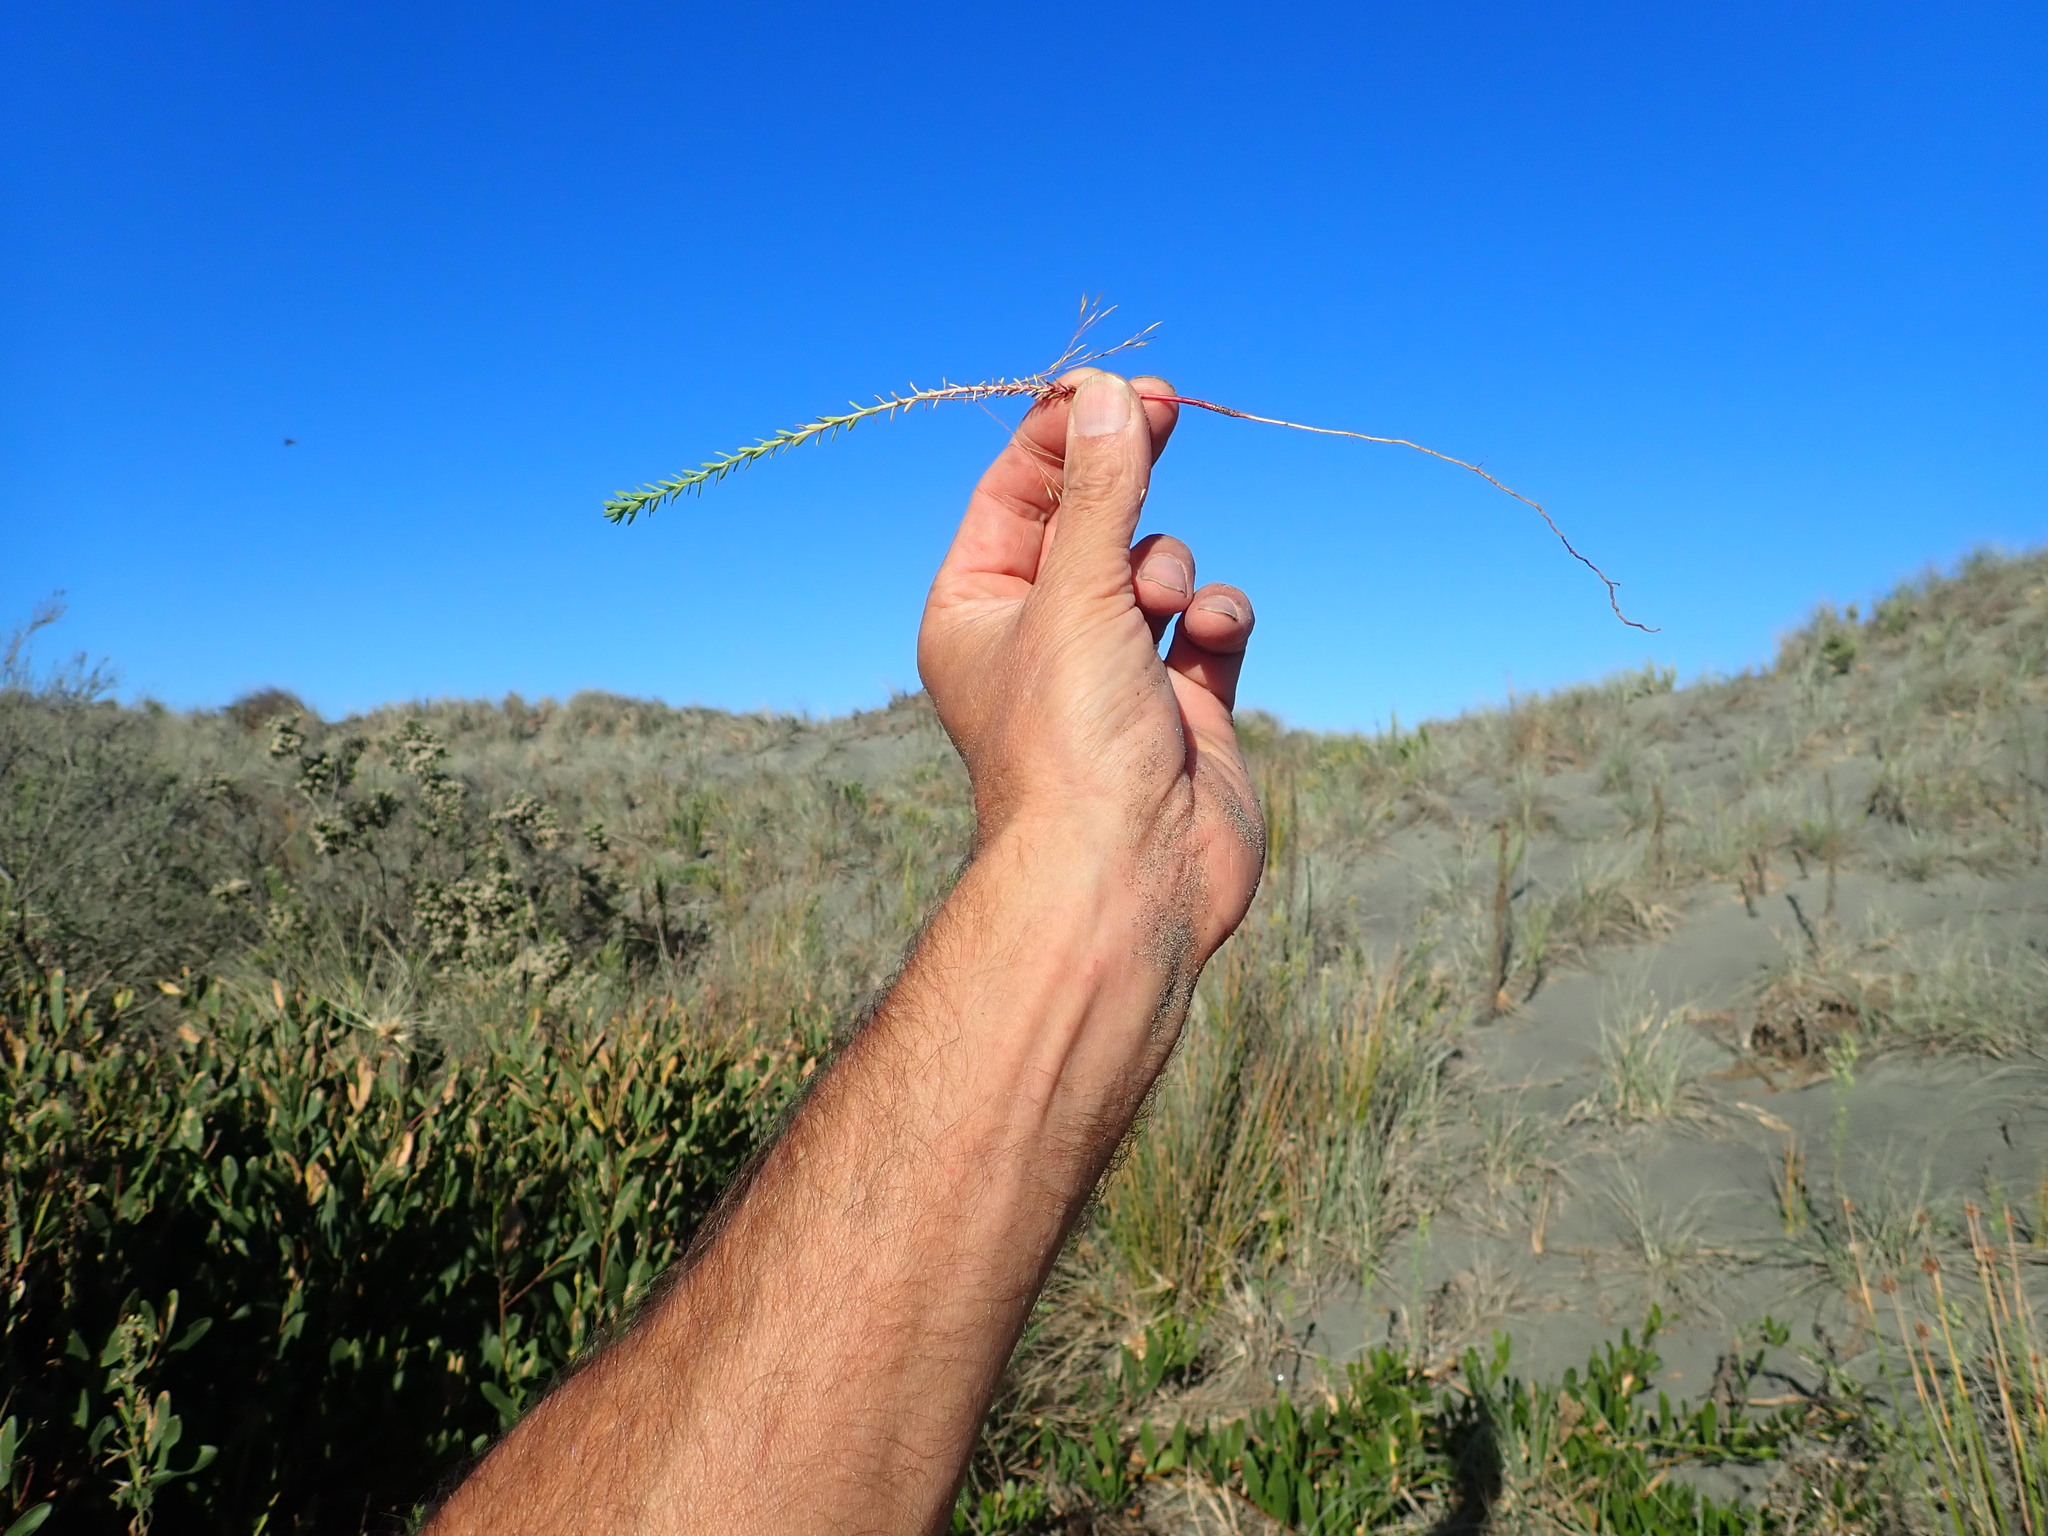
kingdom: Plantae
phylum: Tracheophyta
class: Magnoliopsida
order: Malpighiales
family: Euphorbiaceae
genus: Euphorbia
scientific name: Euphorbia paralias
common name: Sea spurge
